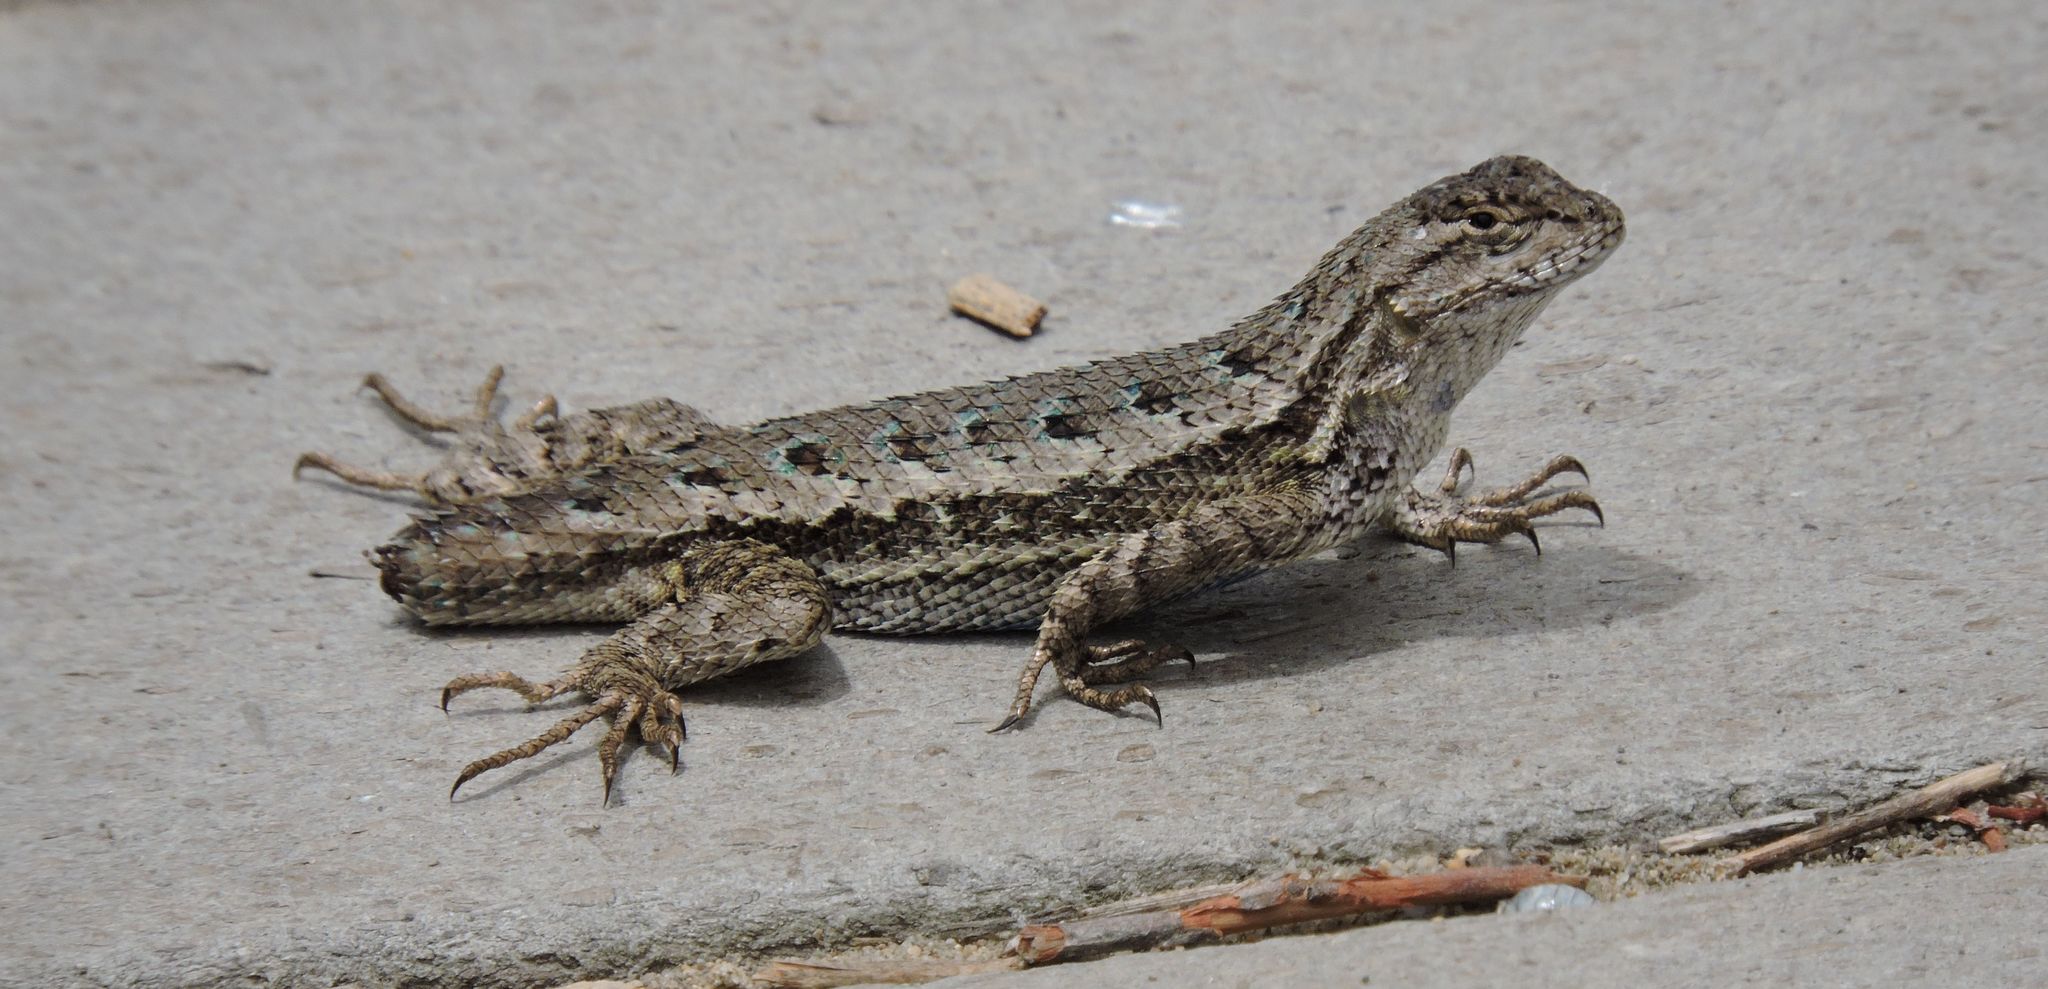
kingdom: Animalia
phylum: Chordata
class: Squamata
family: Phrynosomatidae
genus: Sceloporus
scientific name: Sceloporus occidentalis
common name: Western fence lizard
